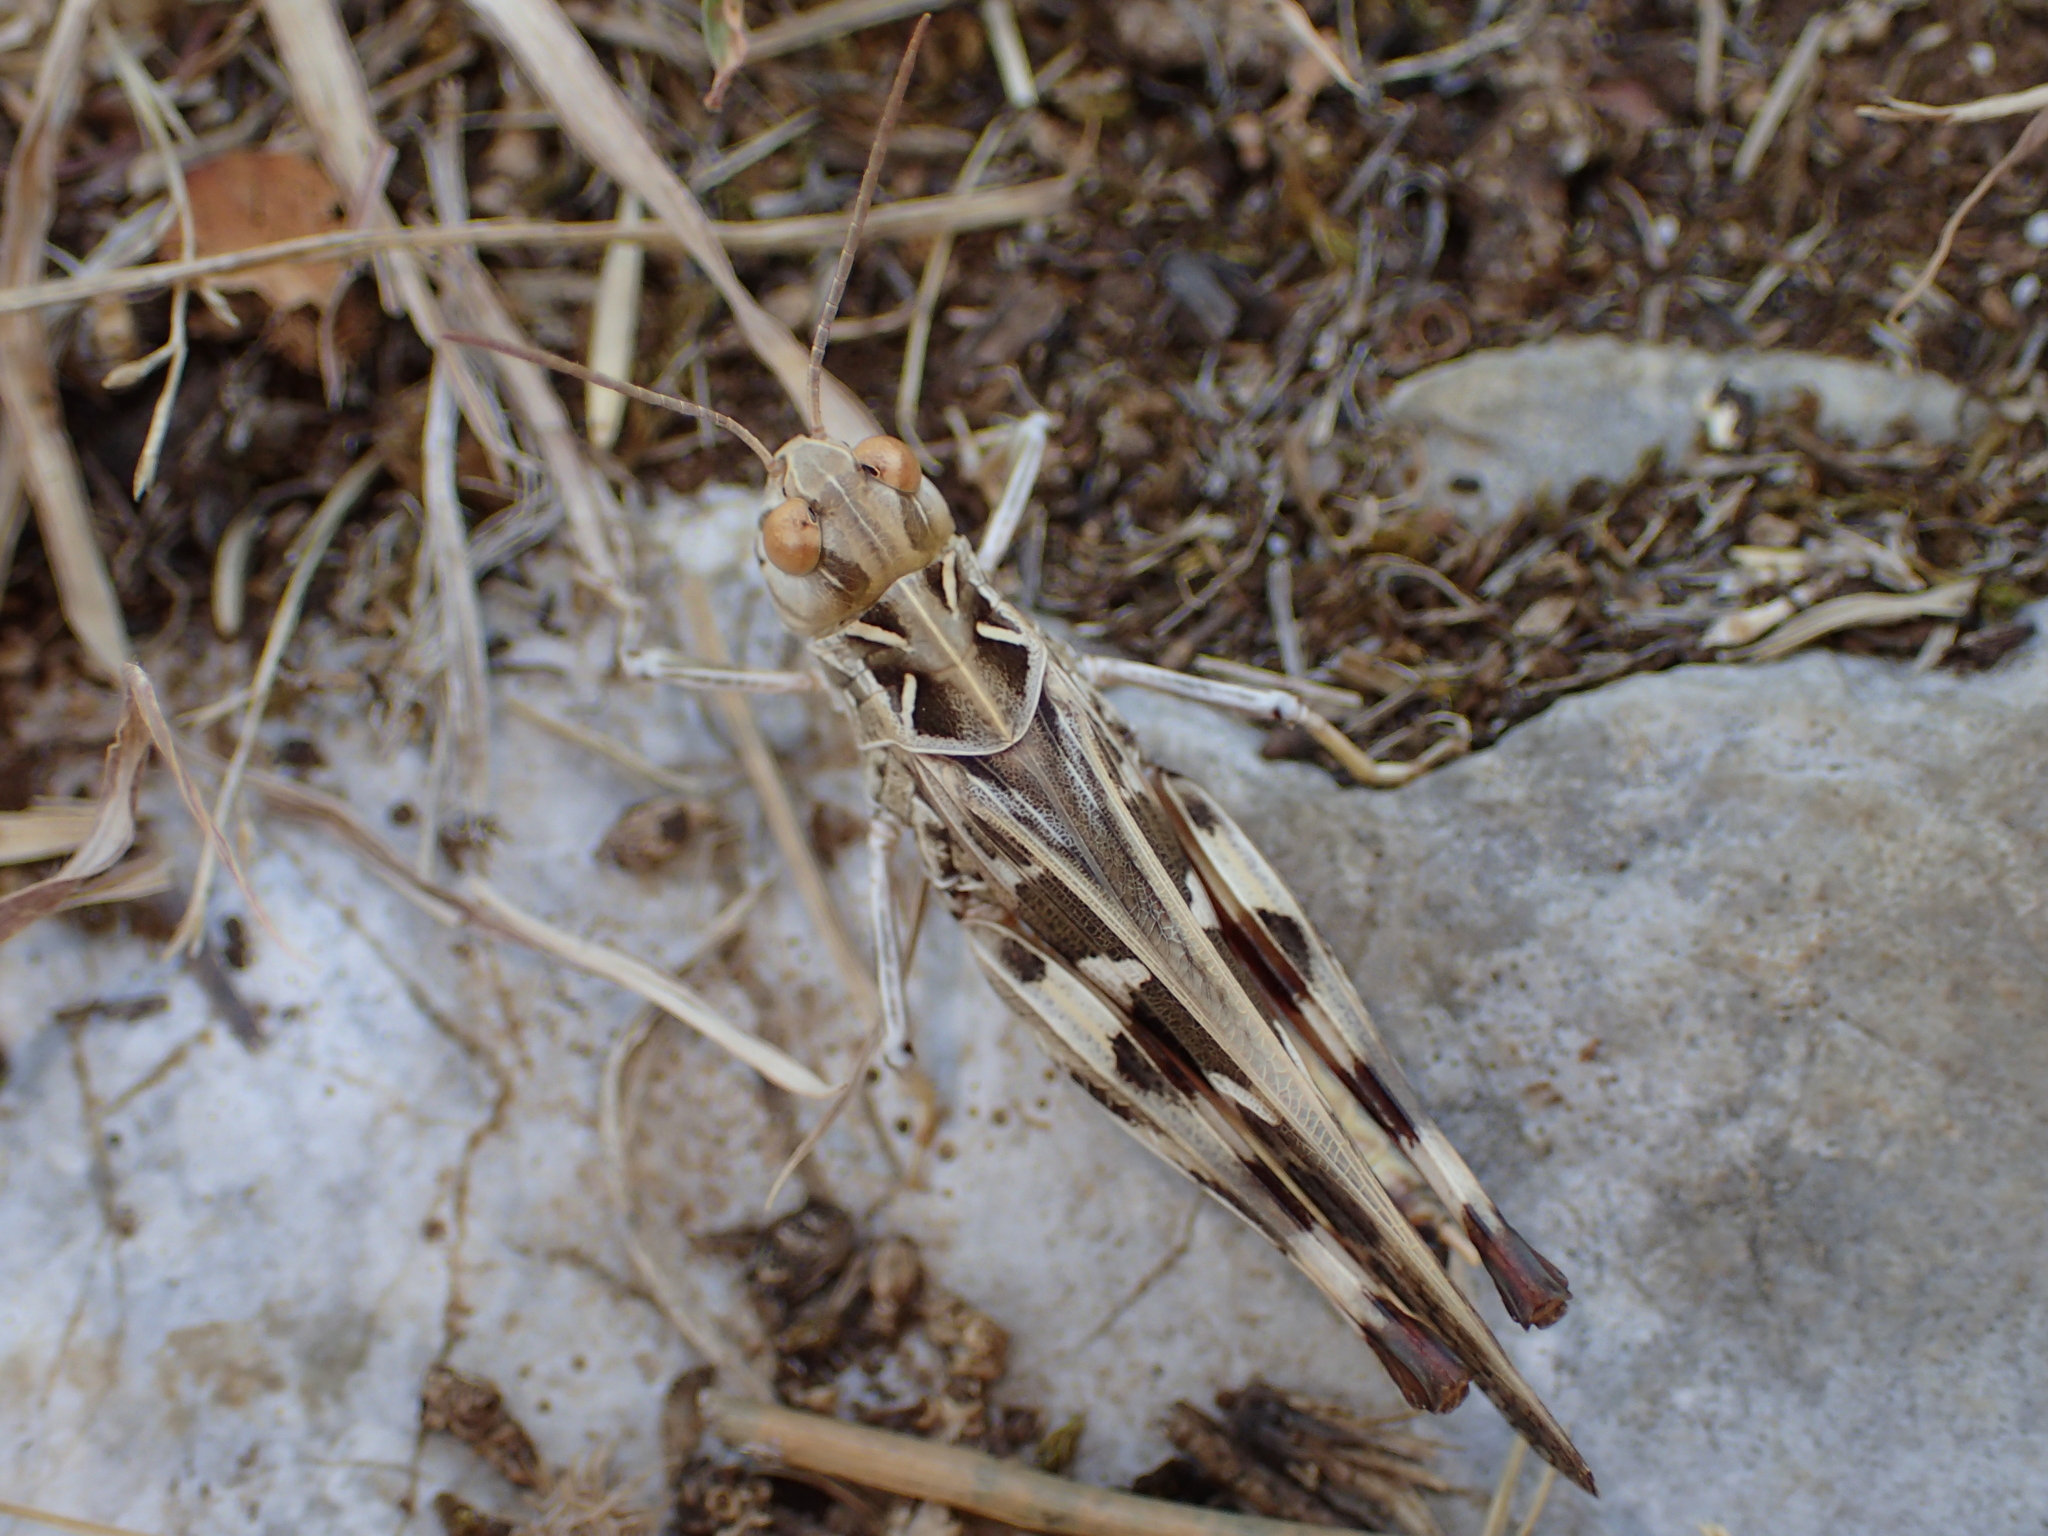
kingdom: Animalia
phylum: Arthropoda
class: Insecta
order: Orthoptera
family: Acrididae
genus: Oedaleus
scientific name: Oedaleus decorus
